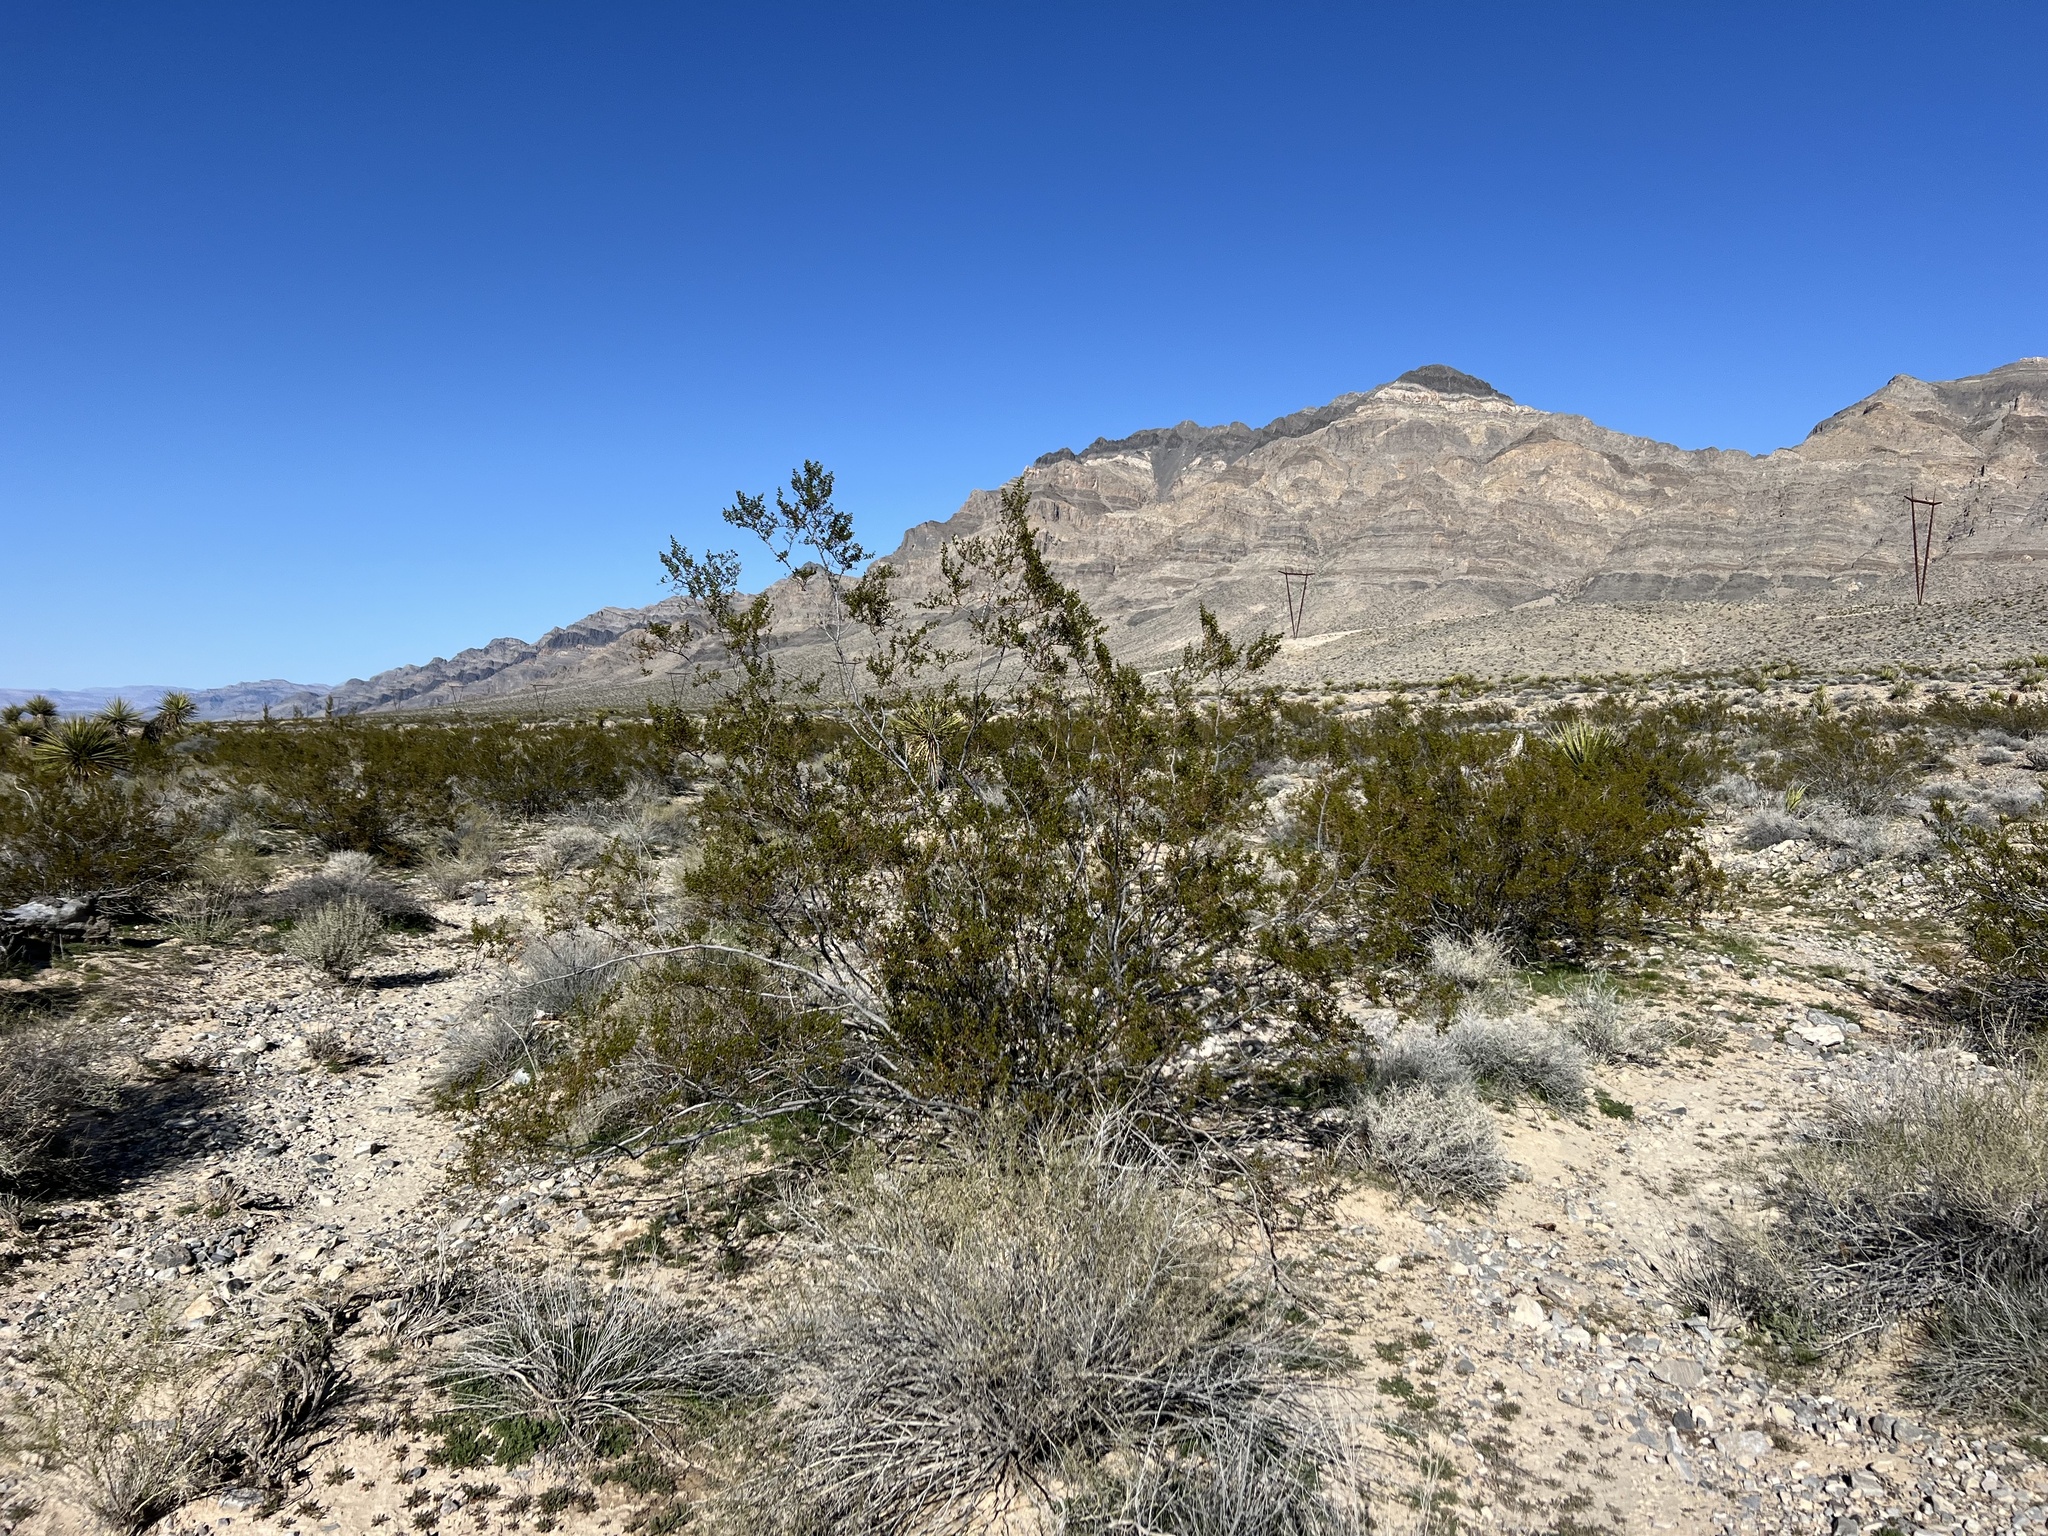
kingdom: Plantae
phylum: Tracheophyta
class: Magnoliopsida
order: Zygophyllales
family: Zygophyllaceae
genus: Larrea
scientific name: Larrea tridentata
